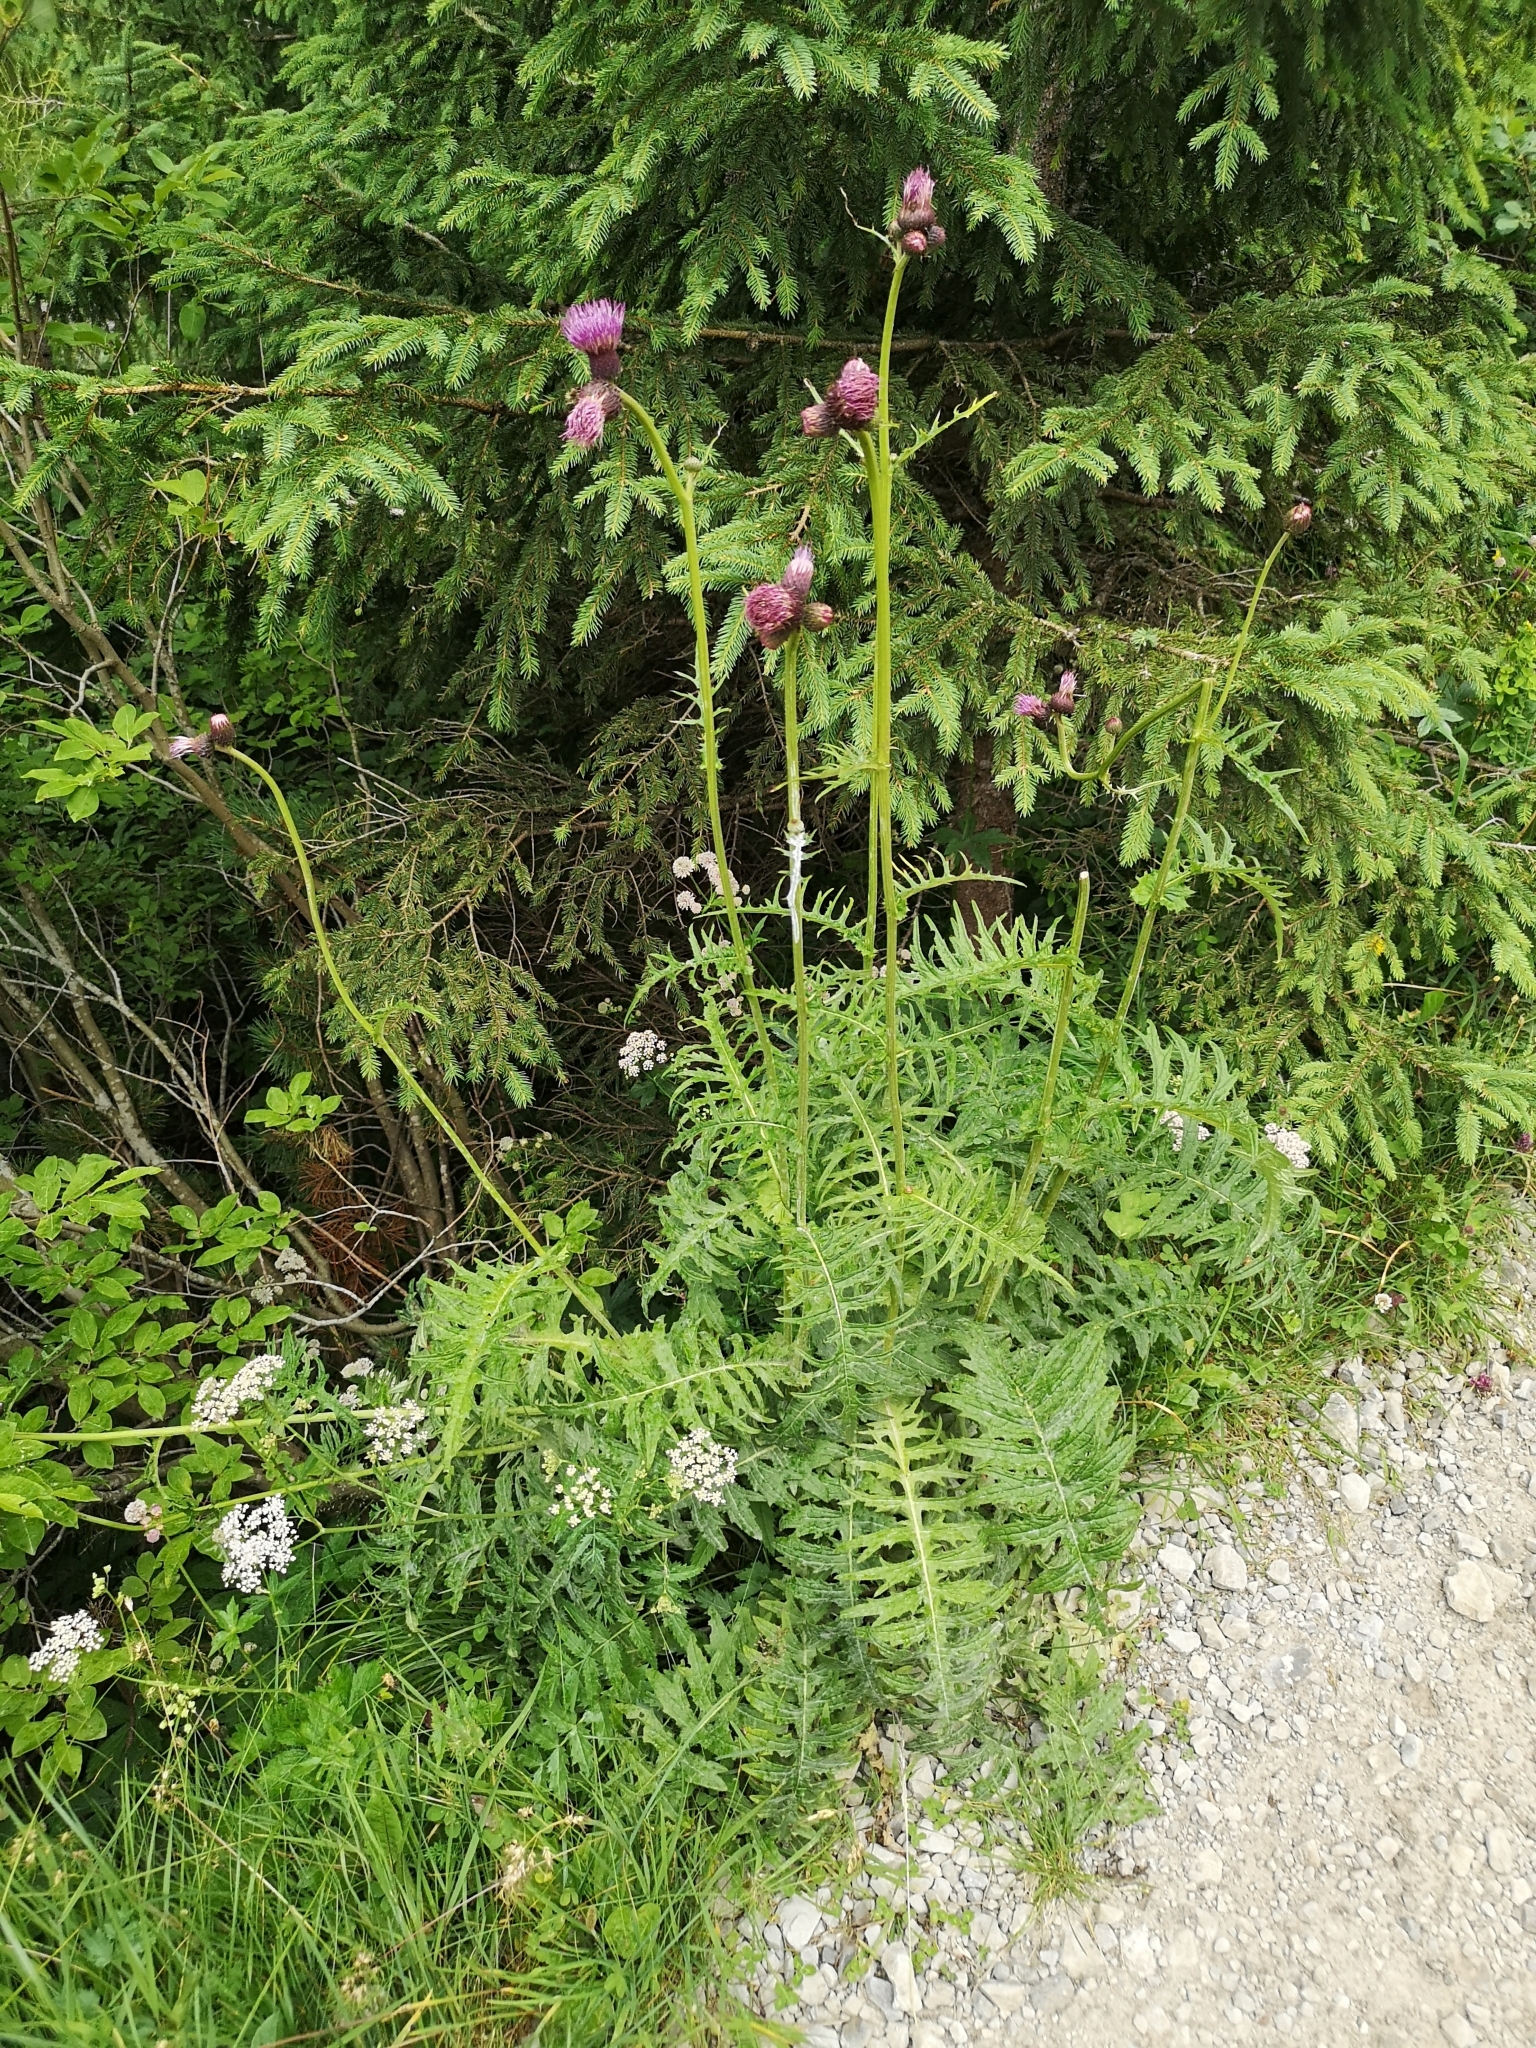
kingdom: Plantae
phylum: Tracheophyta
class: Magnoliopsida
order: Asterales
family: Asteraceae
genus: Cirsium
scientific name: Cirsium rivulare
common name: Brook thistle
